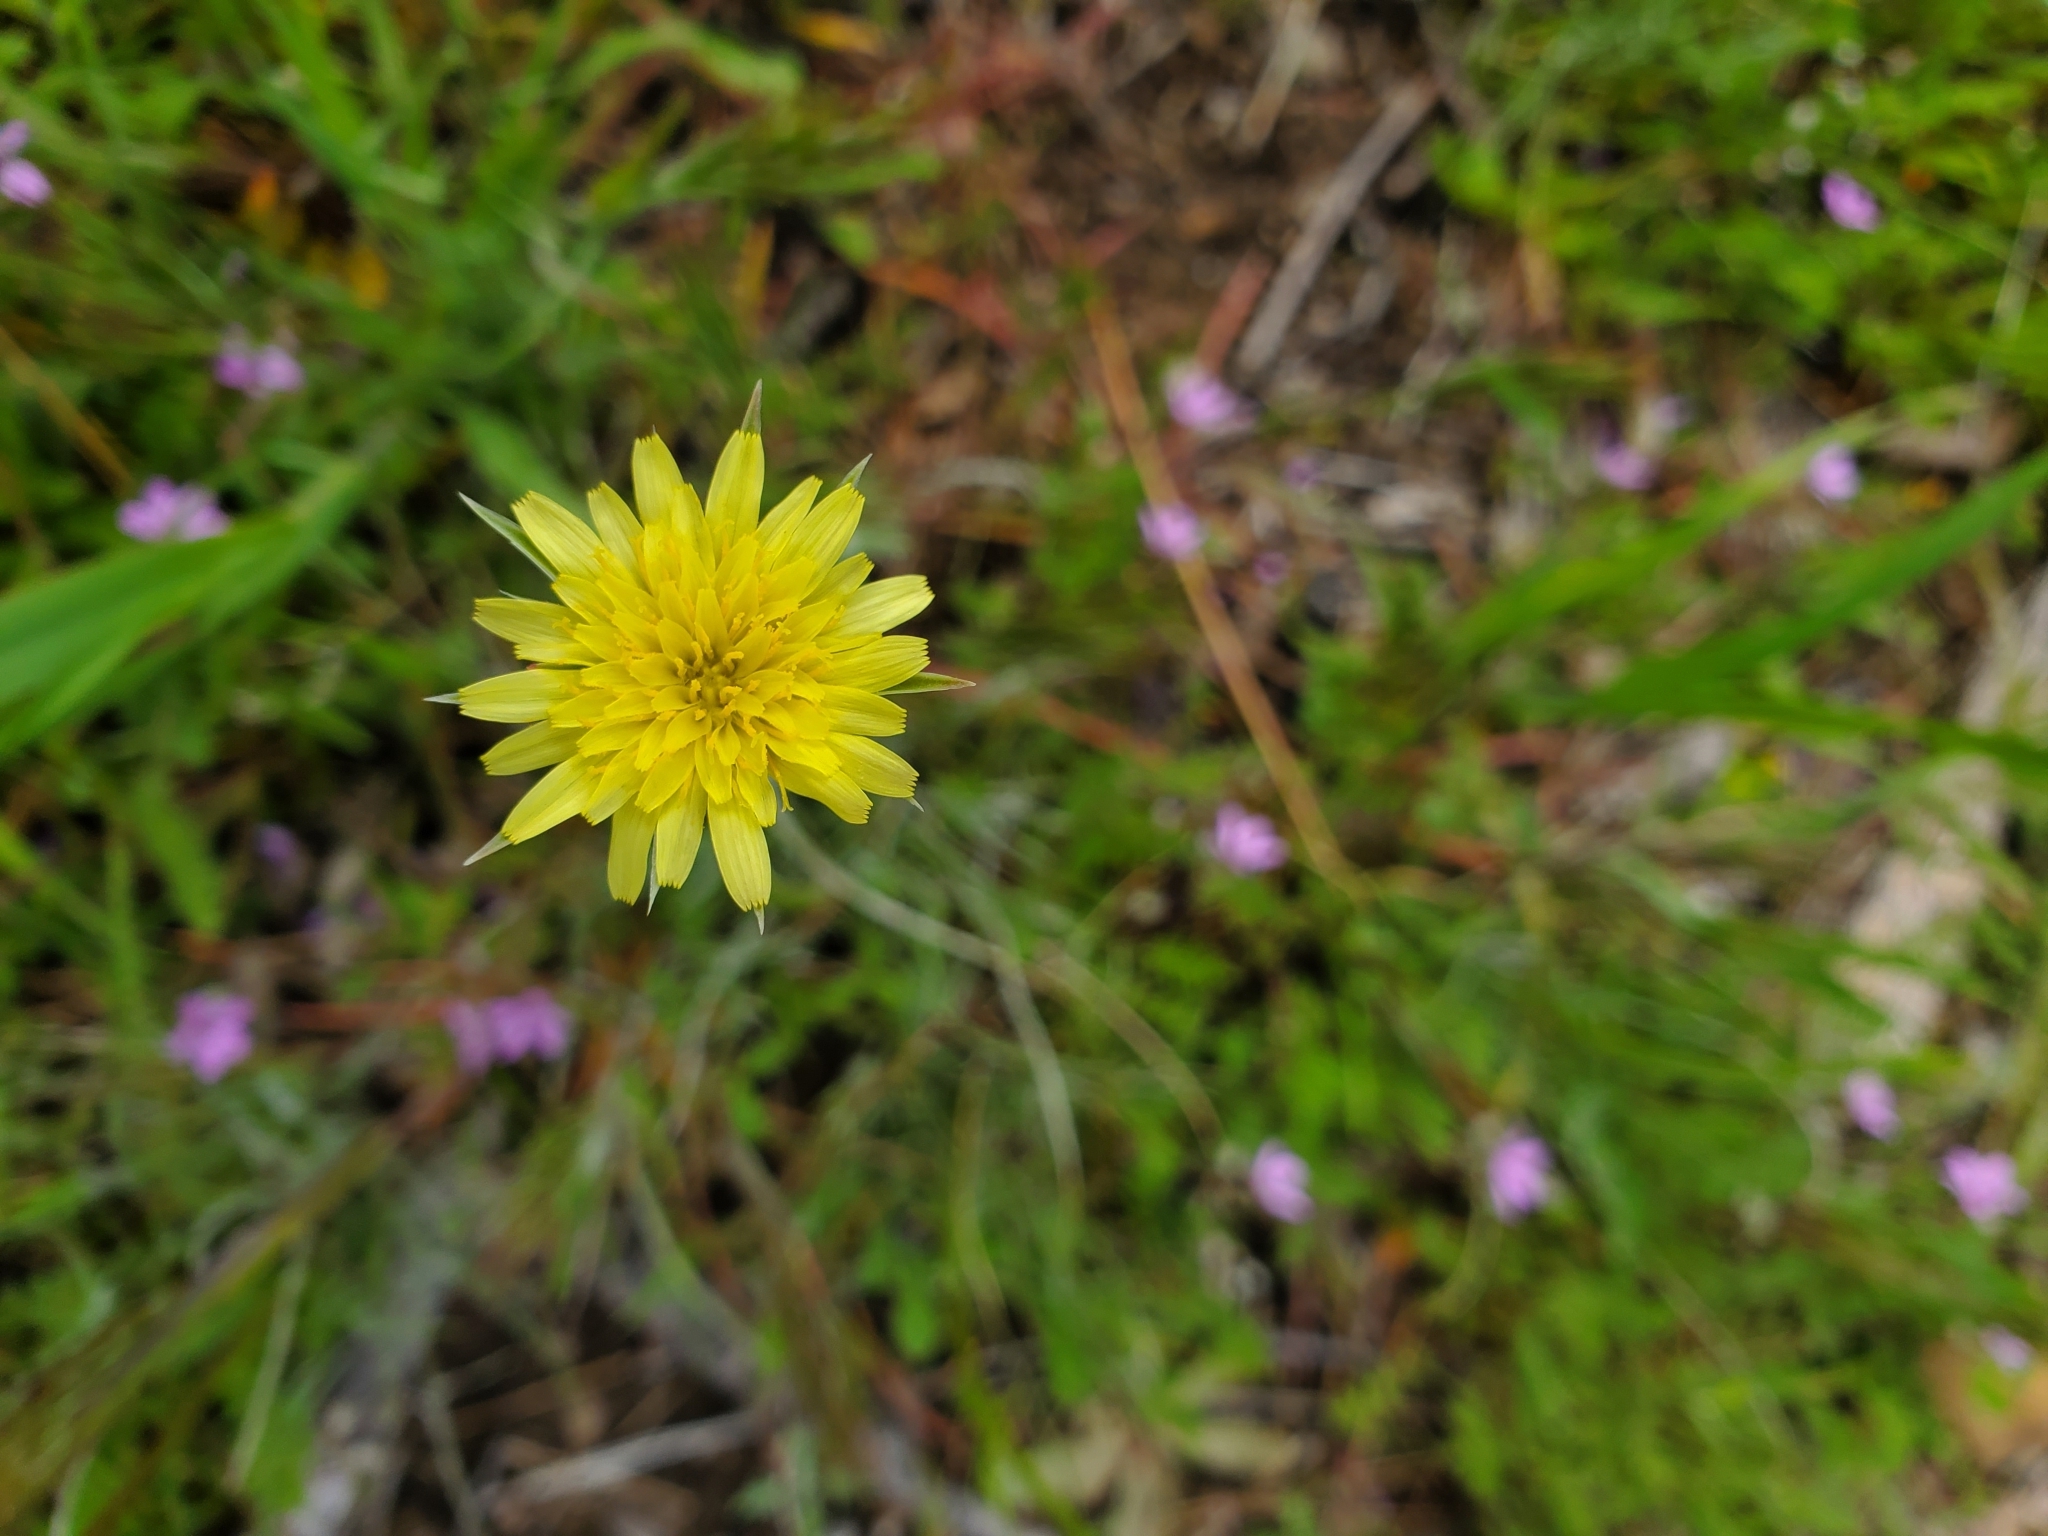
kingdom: Plantae
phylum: Tracheophyta
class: Magnoliopsida
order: Asterales
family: Asteraceae
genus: Microseris
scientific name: Microseris lindleyi
